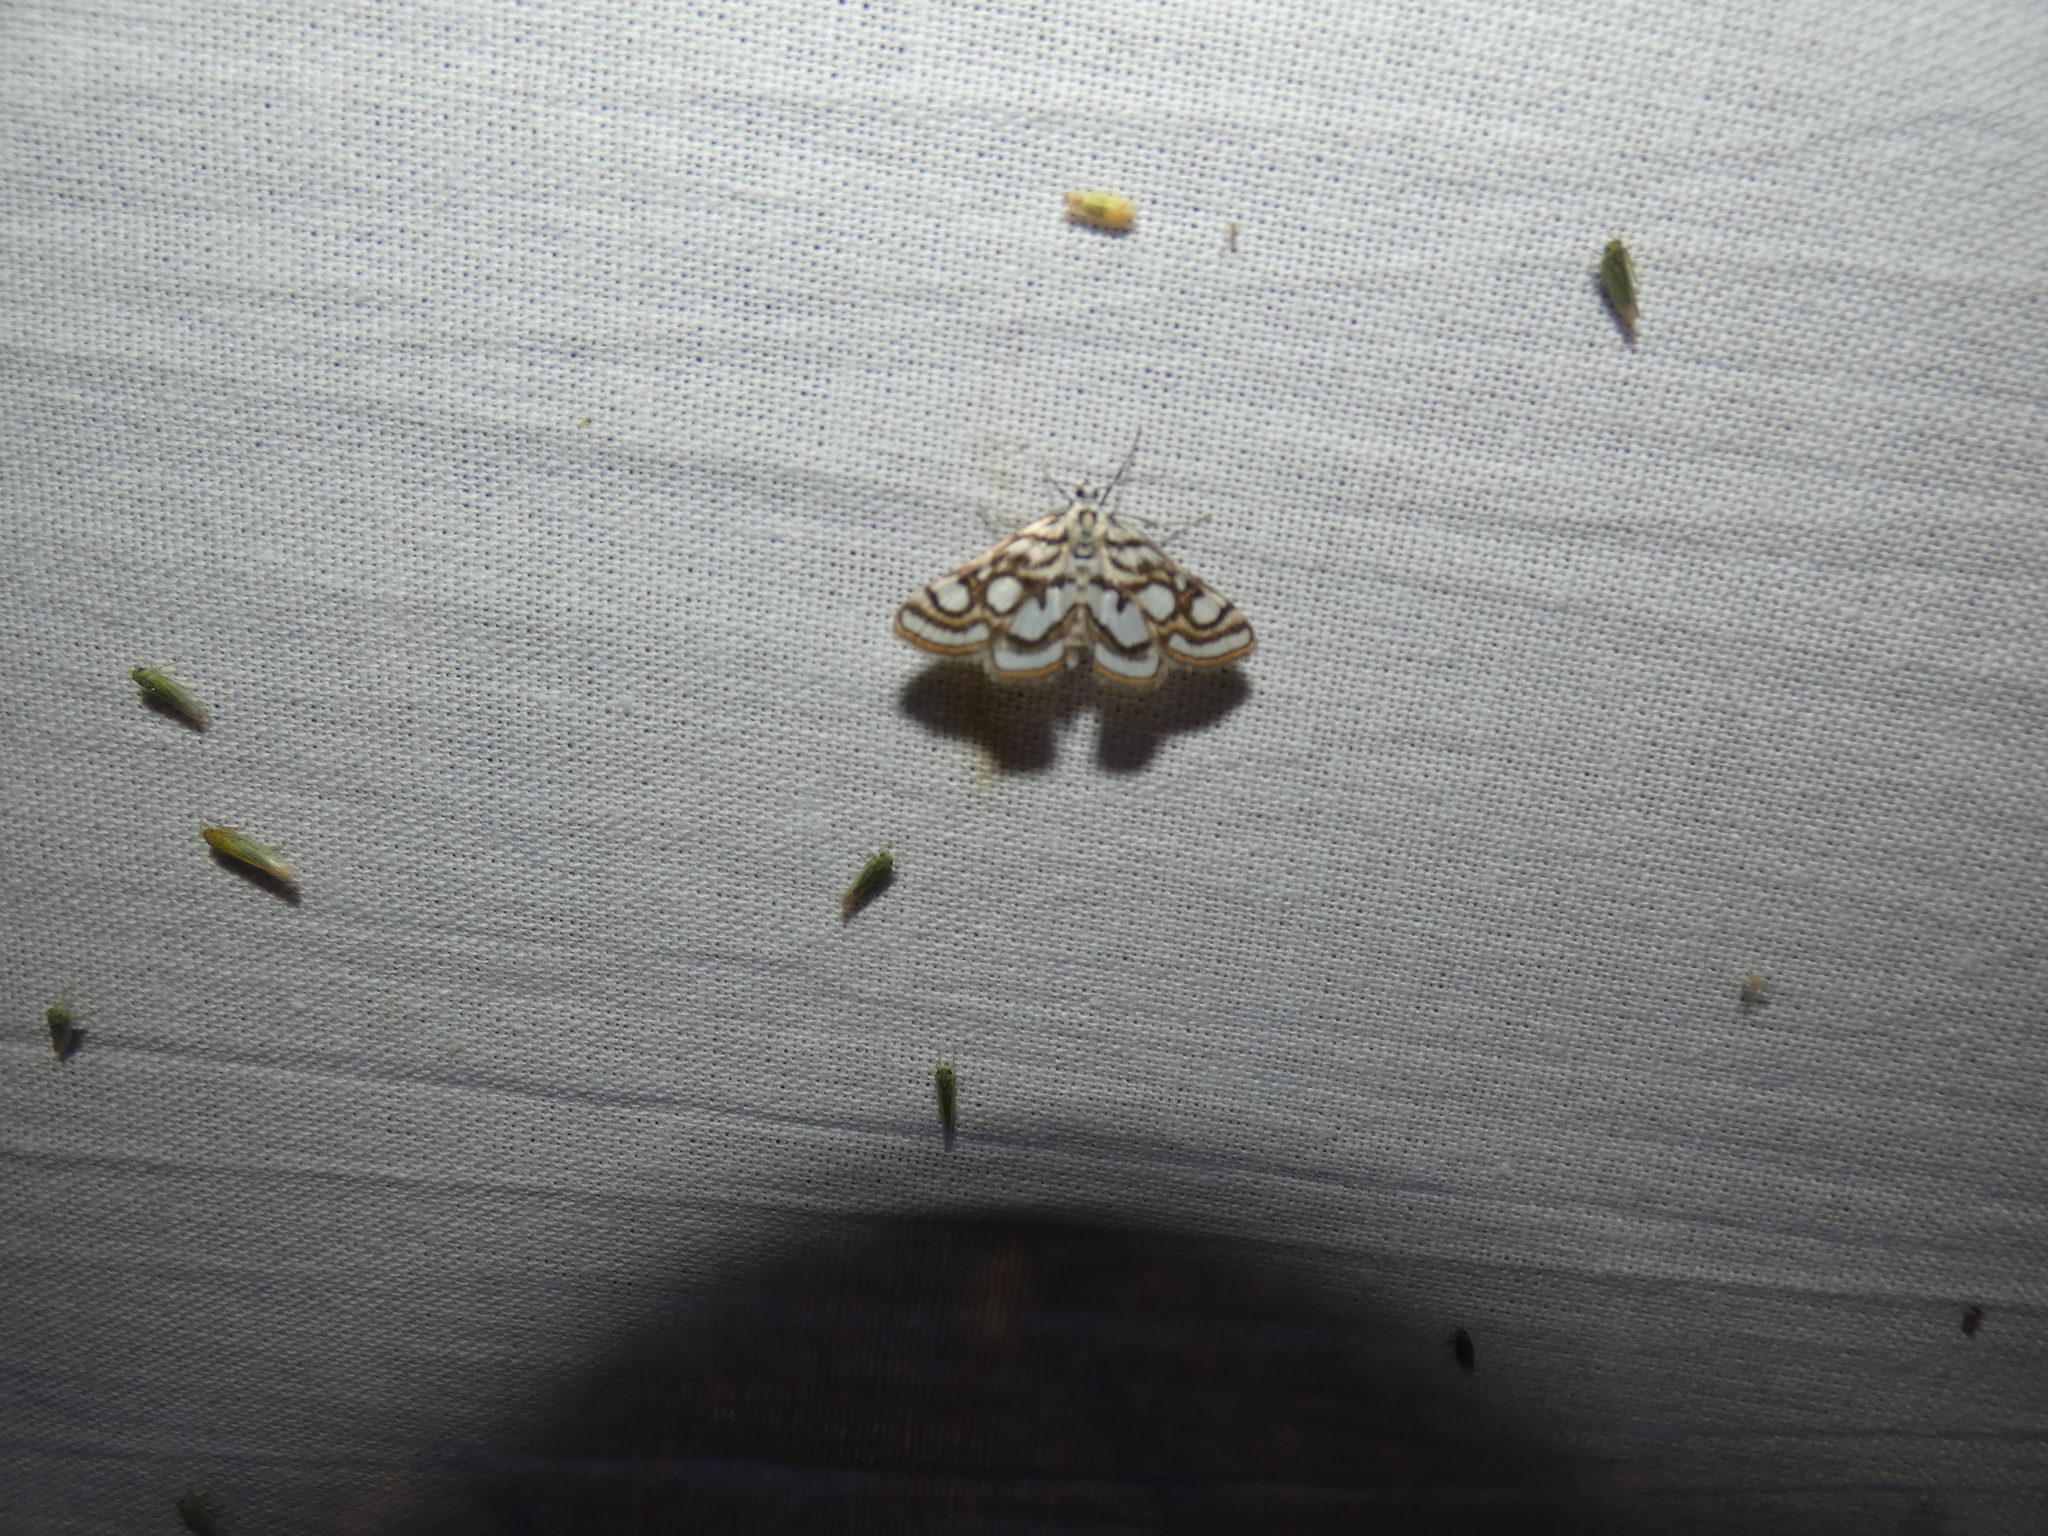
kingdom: Animalia
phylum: Arthropoda
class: Insecta
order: Lepidoptera
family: Crambidae
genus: Nymphula
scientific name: Nymphula nitidulata
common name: Beautiful china mark
